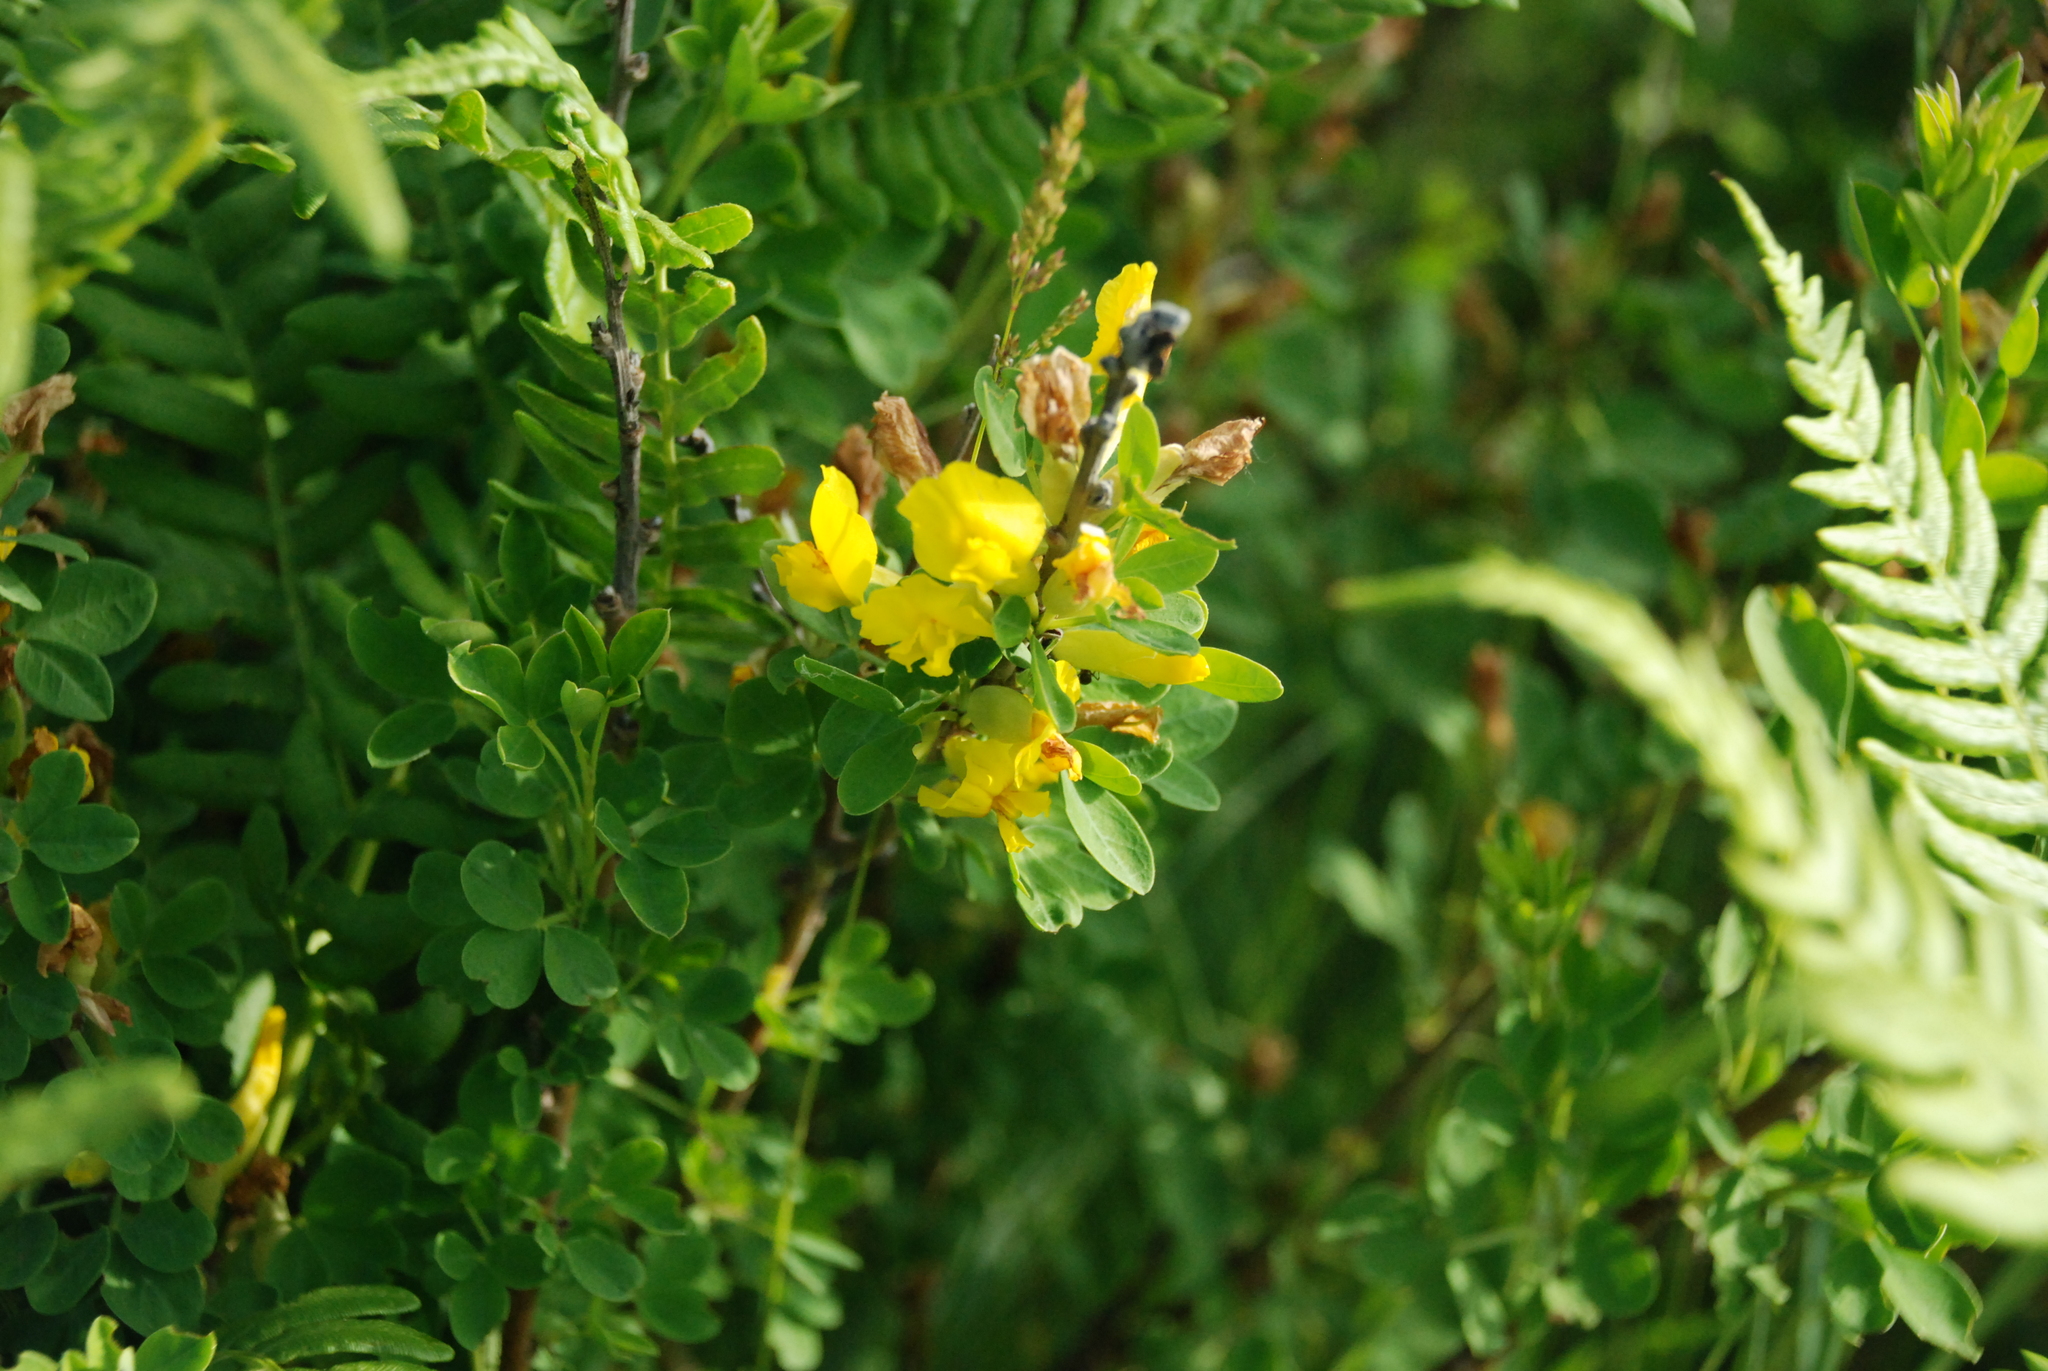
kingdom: Plantae
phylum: Tracheophyta
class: Magnoliopsida
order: Fabales
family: Fabaceae
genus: Chamaecytisus
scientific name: Chamaecytisus ruthenicus
